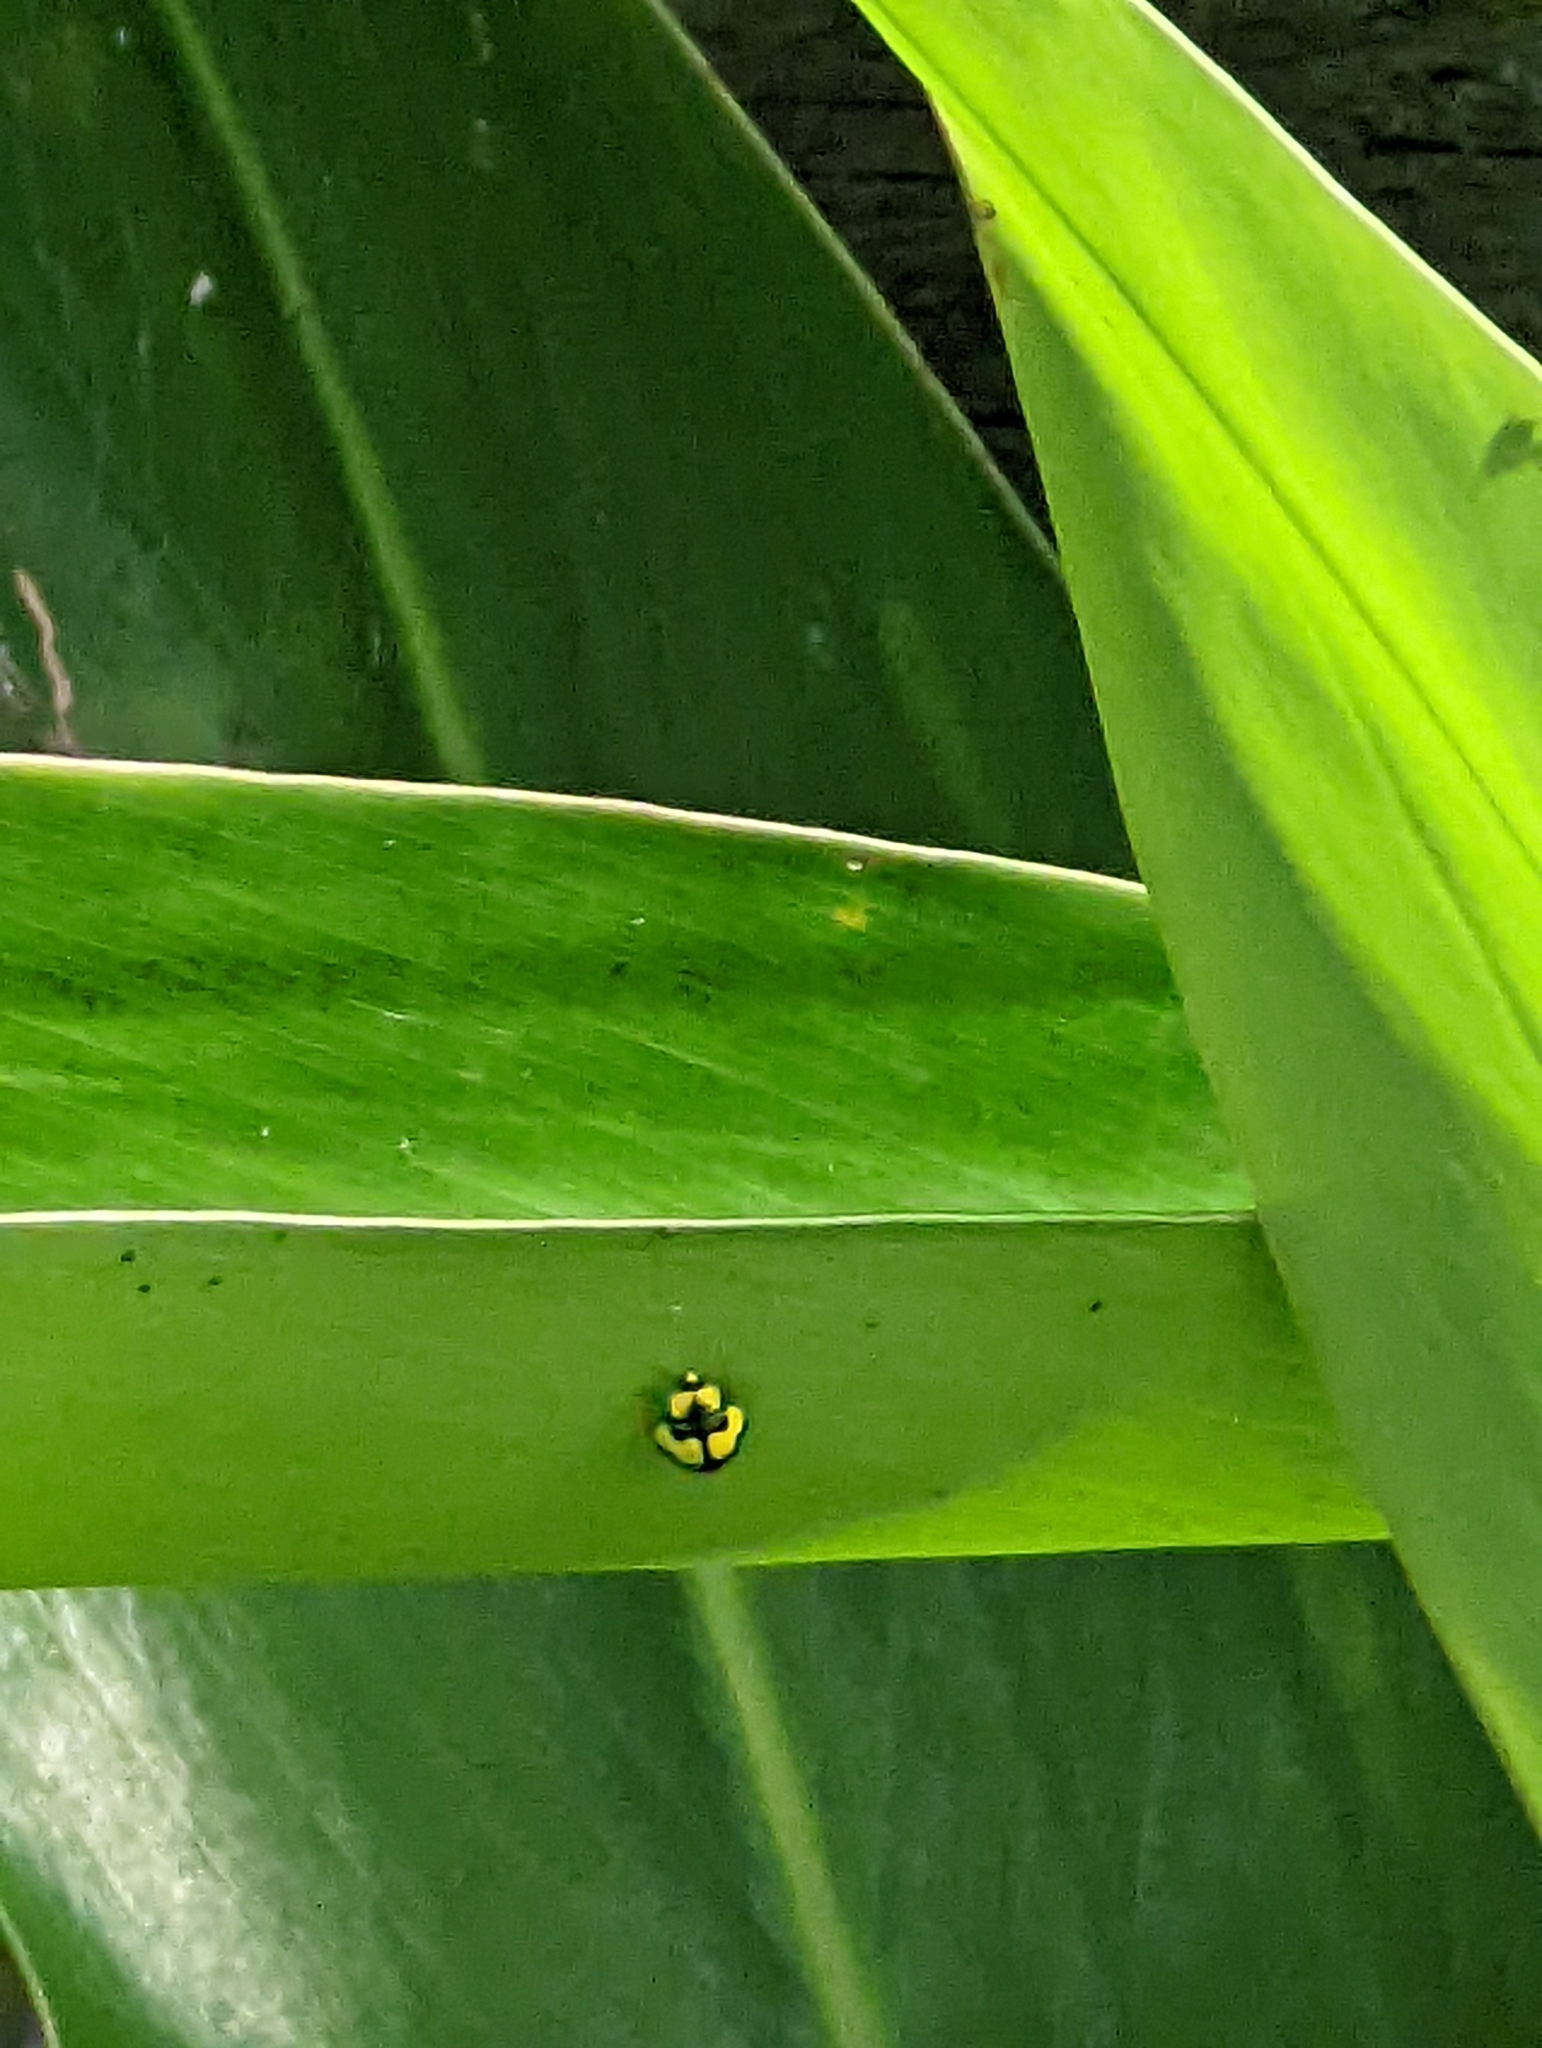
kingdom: Animalia
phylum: Arthropoda
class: Insecta
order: Coleoptera
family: Coccinellidae
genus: Illeis
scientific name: Illeis galbula
